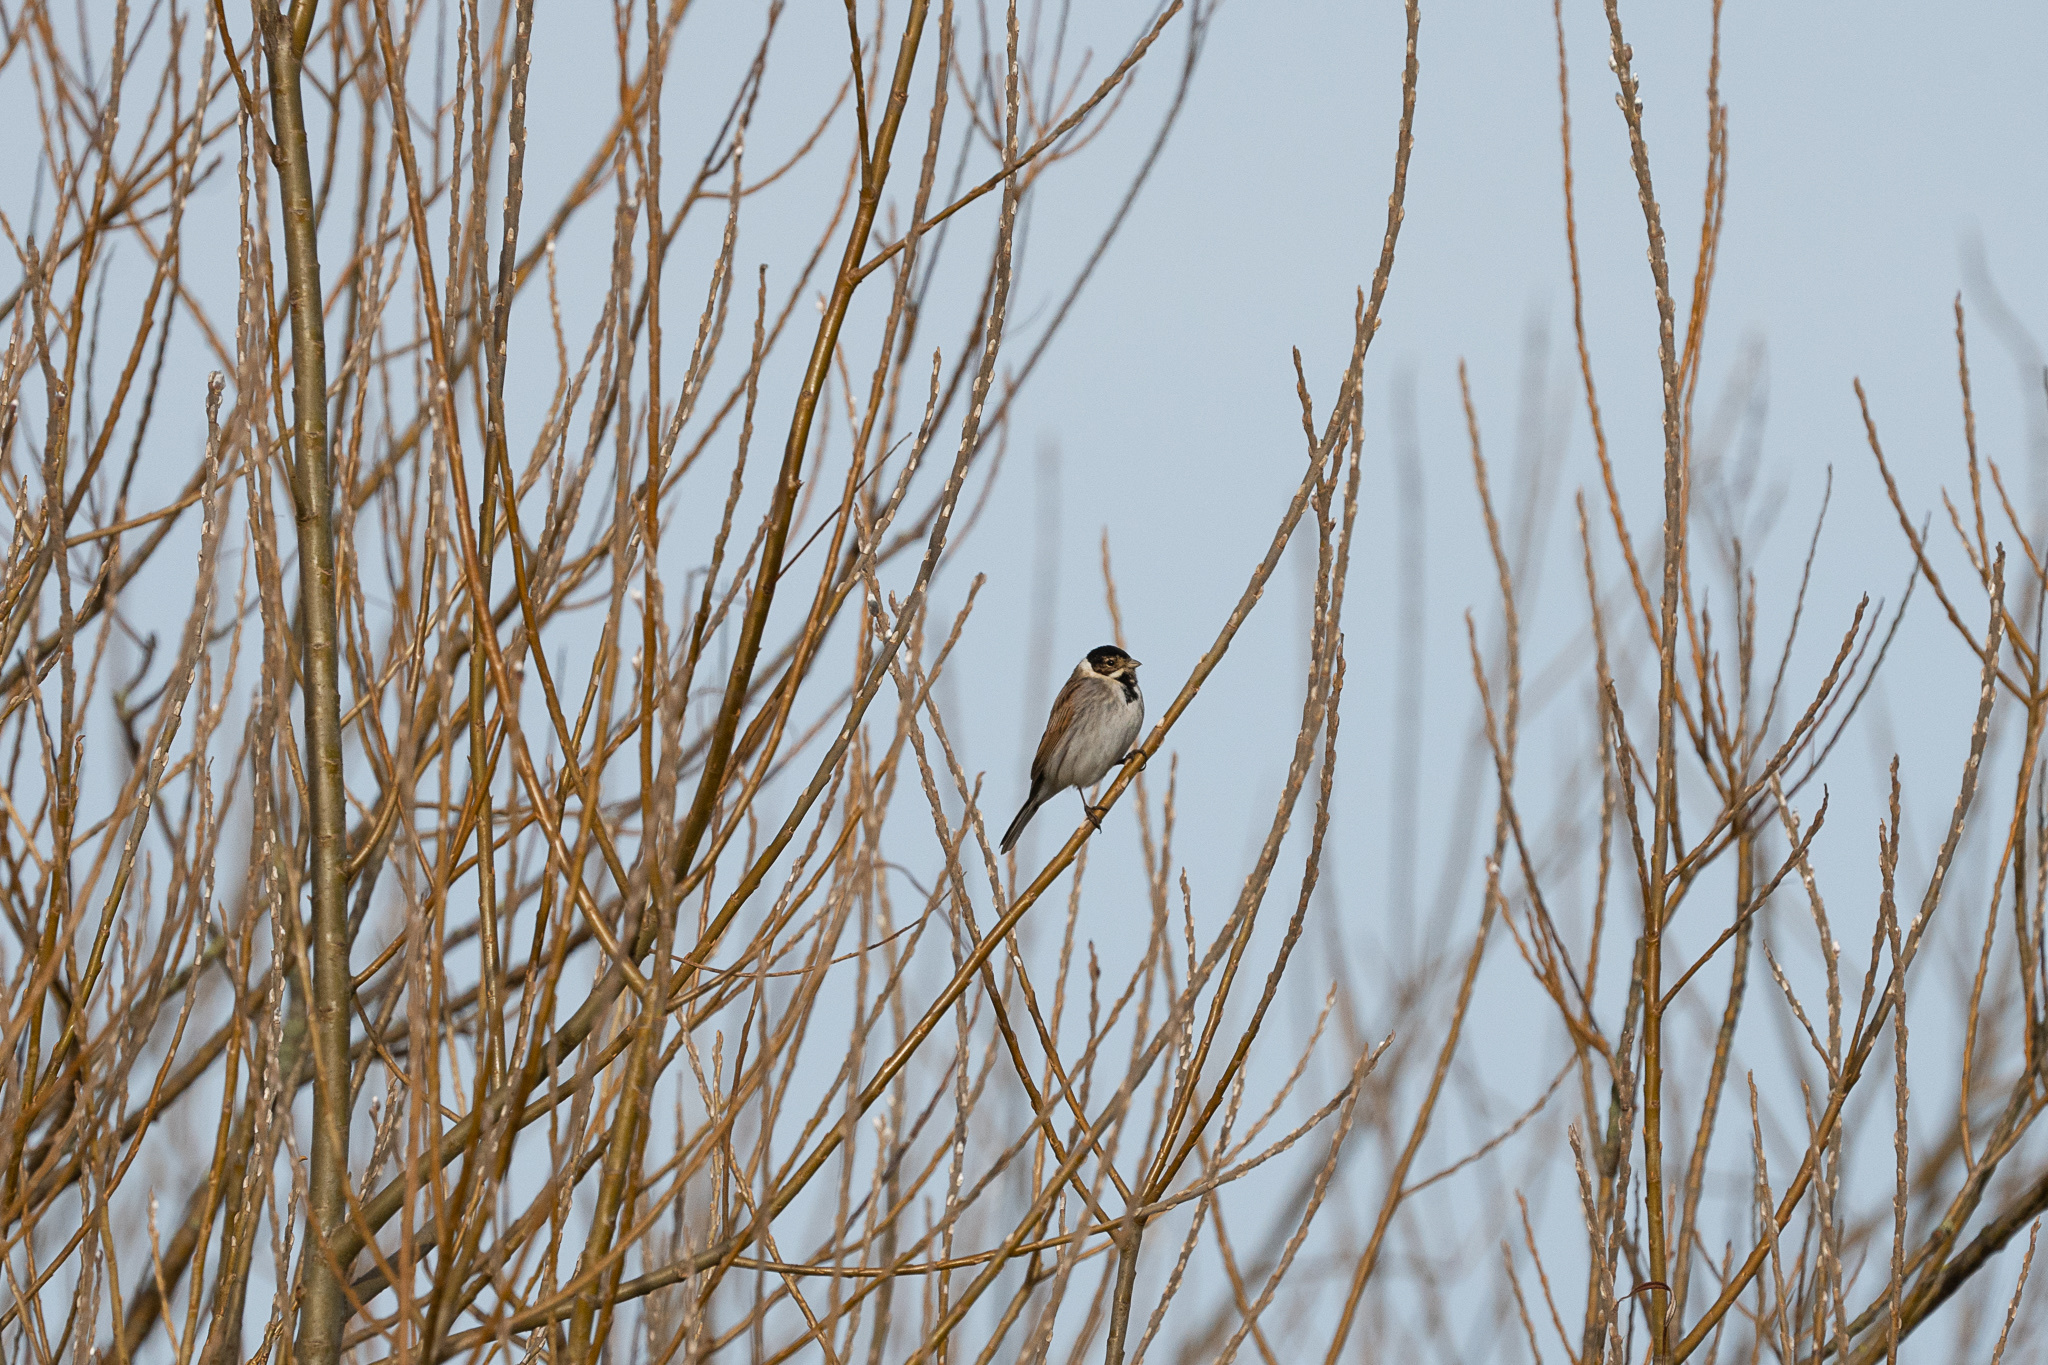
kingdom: Animalia
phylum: Chordata
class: Aves
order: Passeriformes
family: Emberizidae
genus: Emberiza
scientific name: Emberiza schoeniclus
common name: Reed bunting
